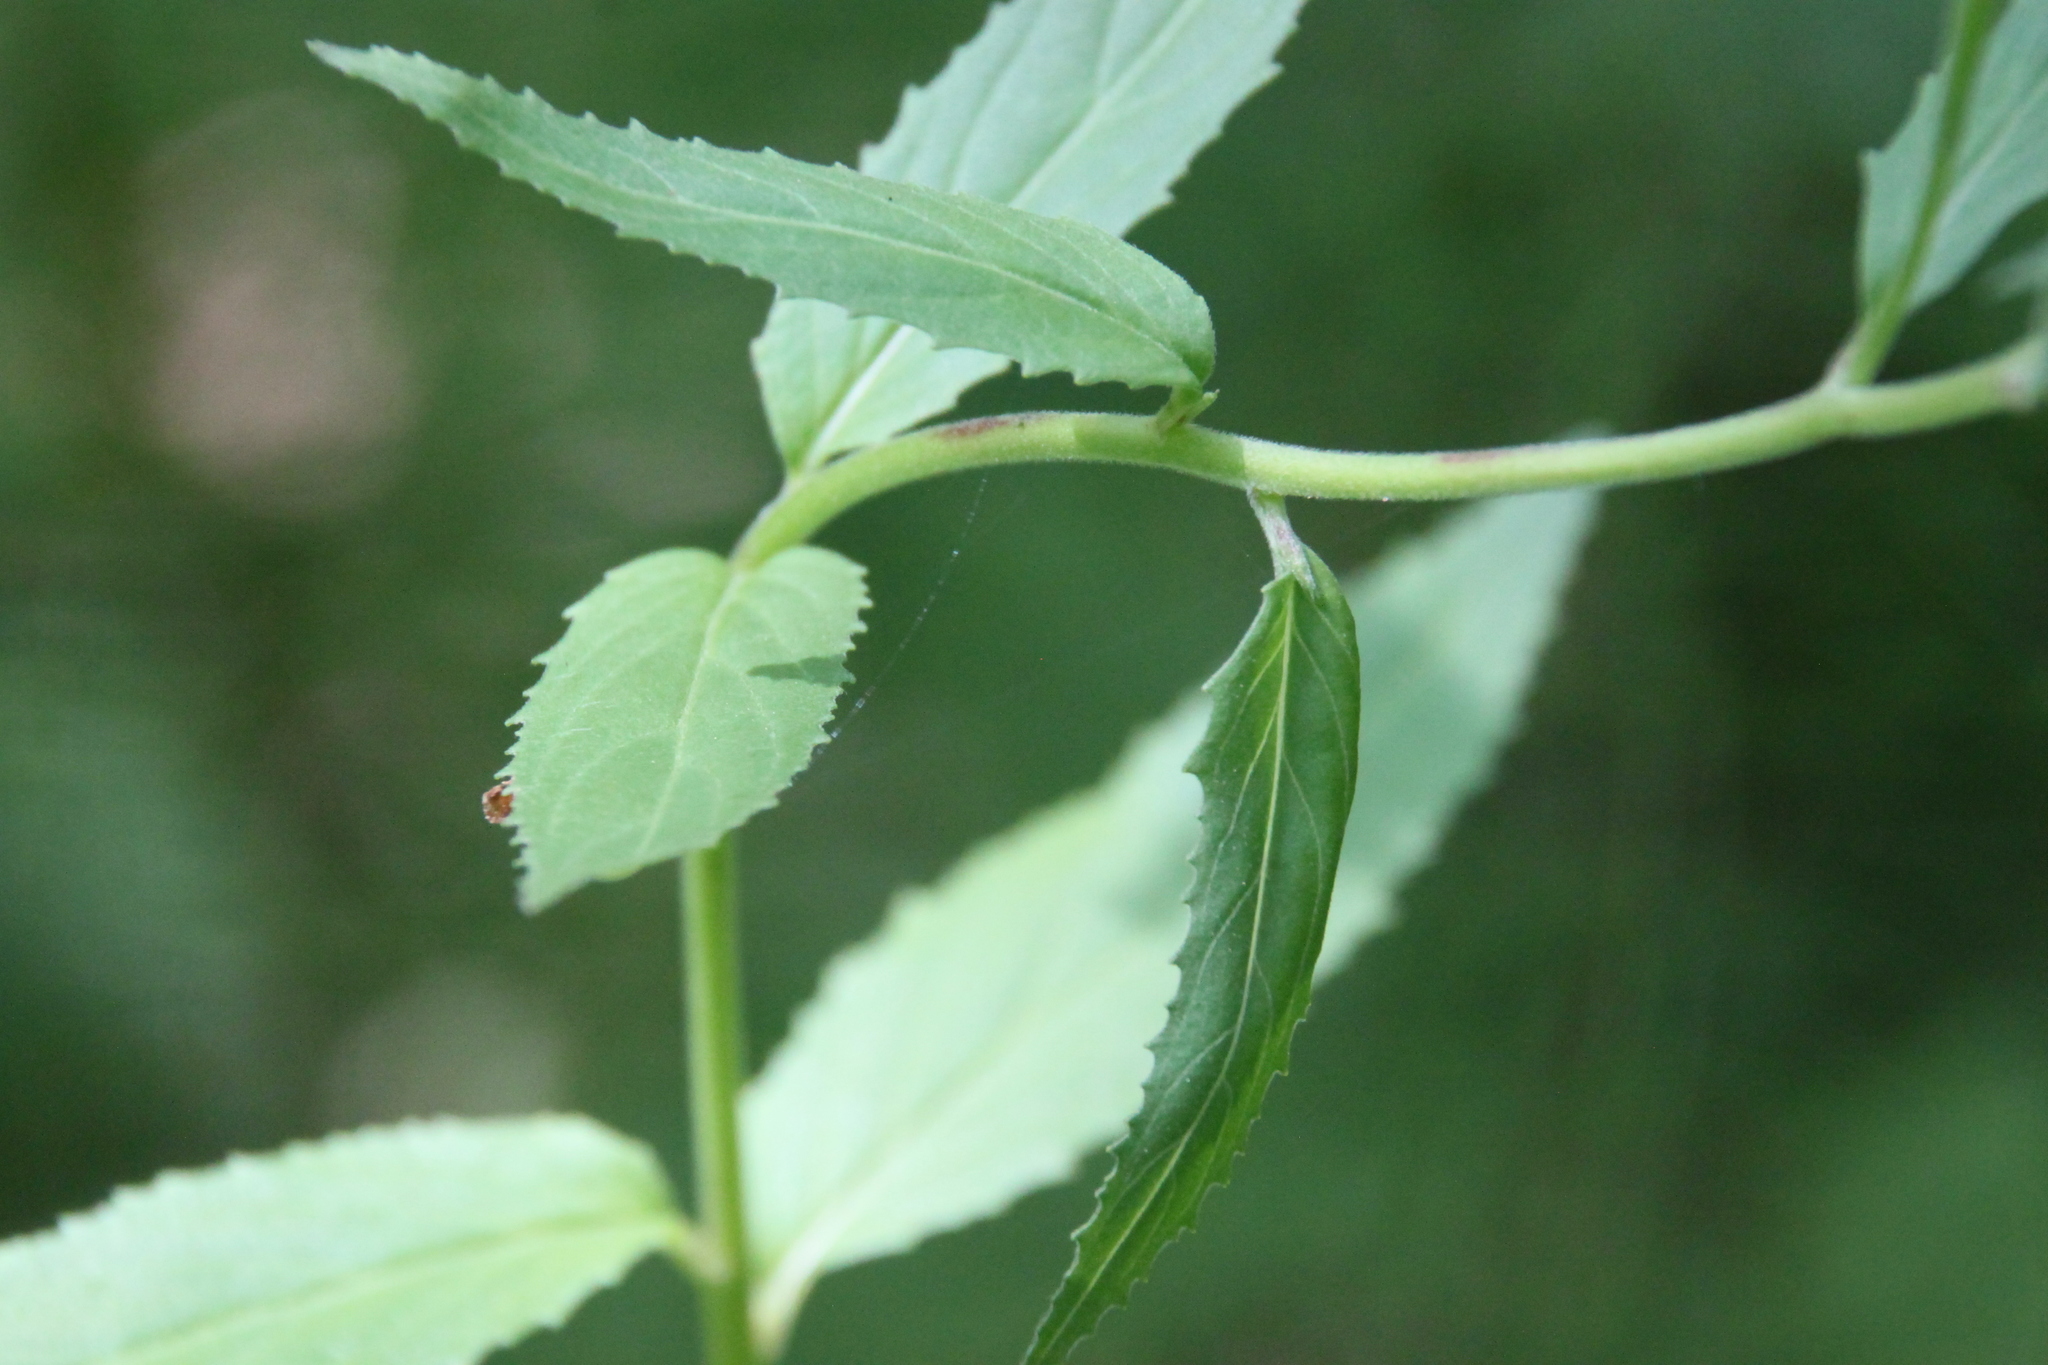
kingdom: Plantae
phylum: Tracheophyta
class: Magnoliopsida
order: Myrtales
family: Onagraceae
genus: Epilobium
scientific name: Epilobium montanum
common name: Broad-leaved willowherb
